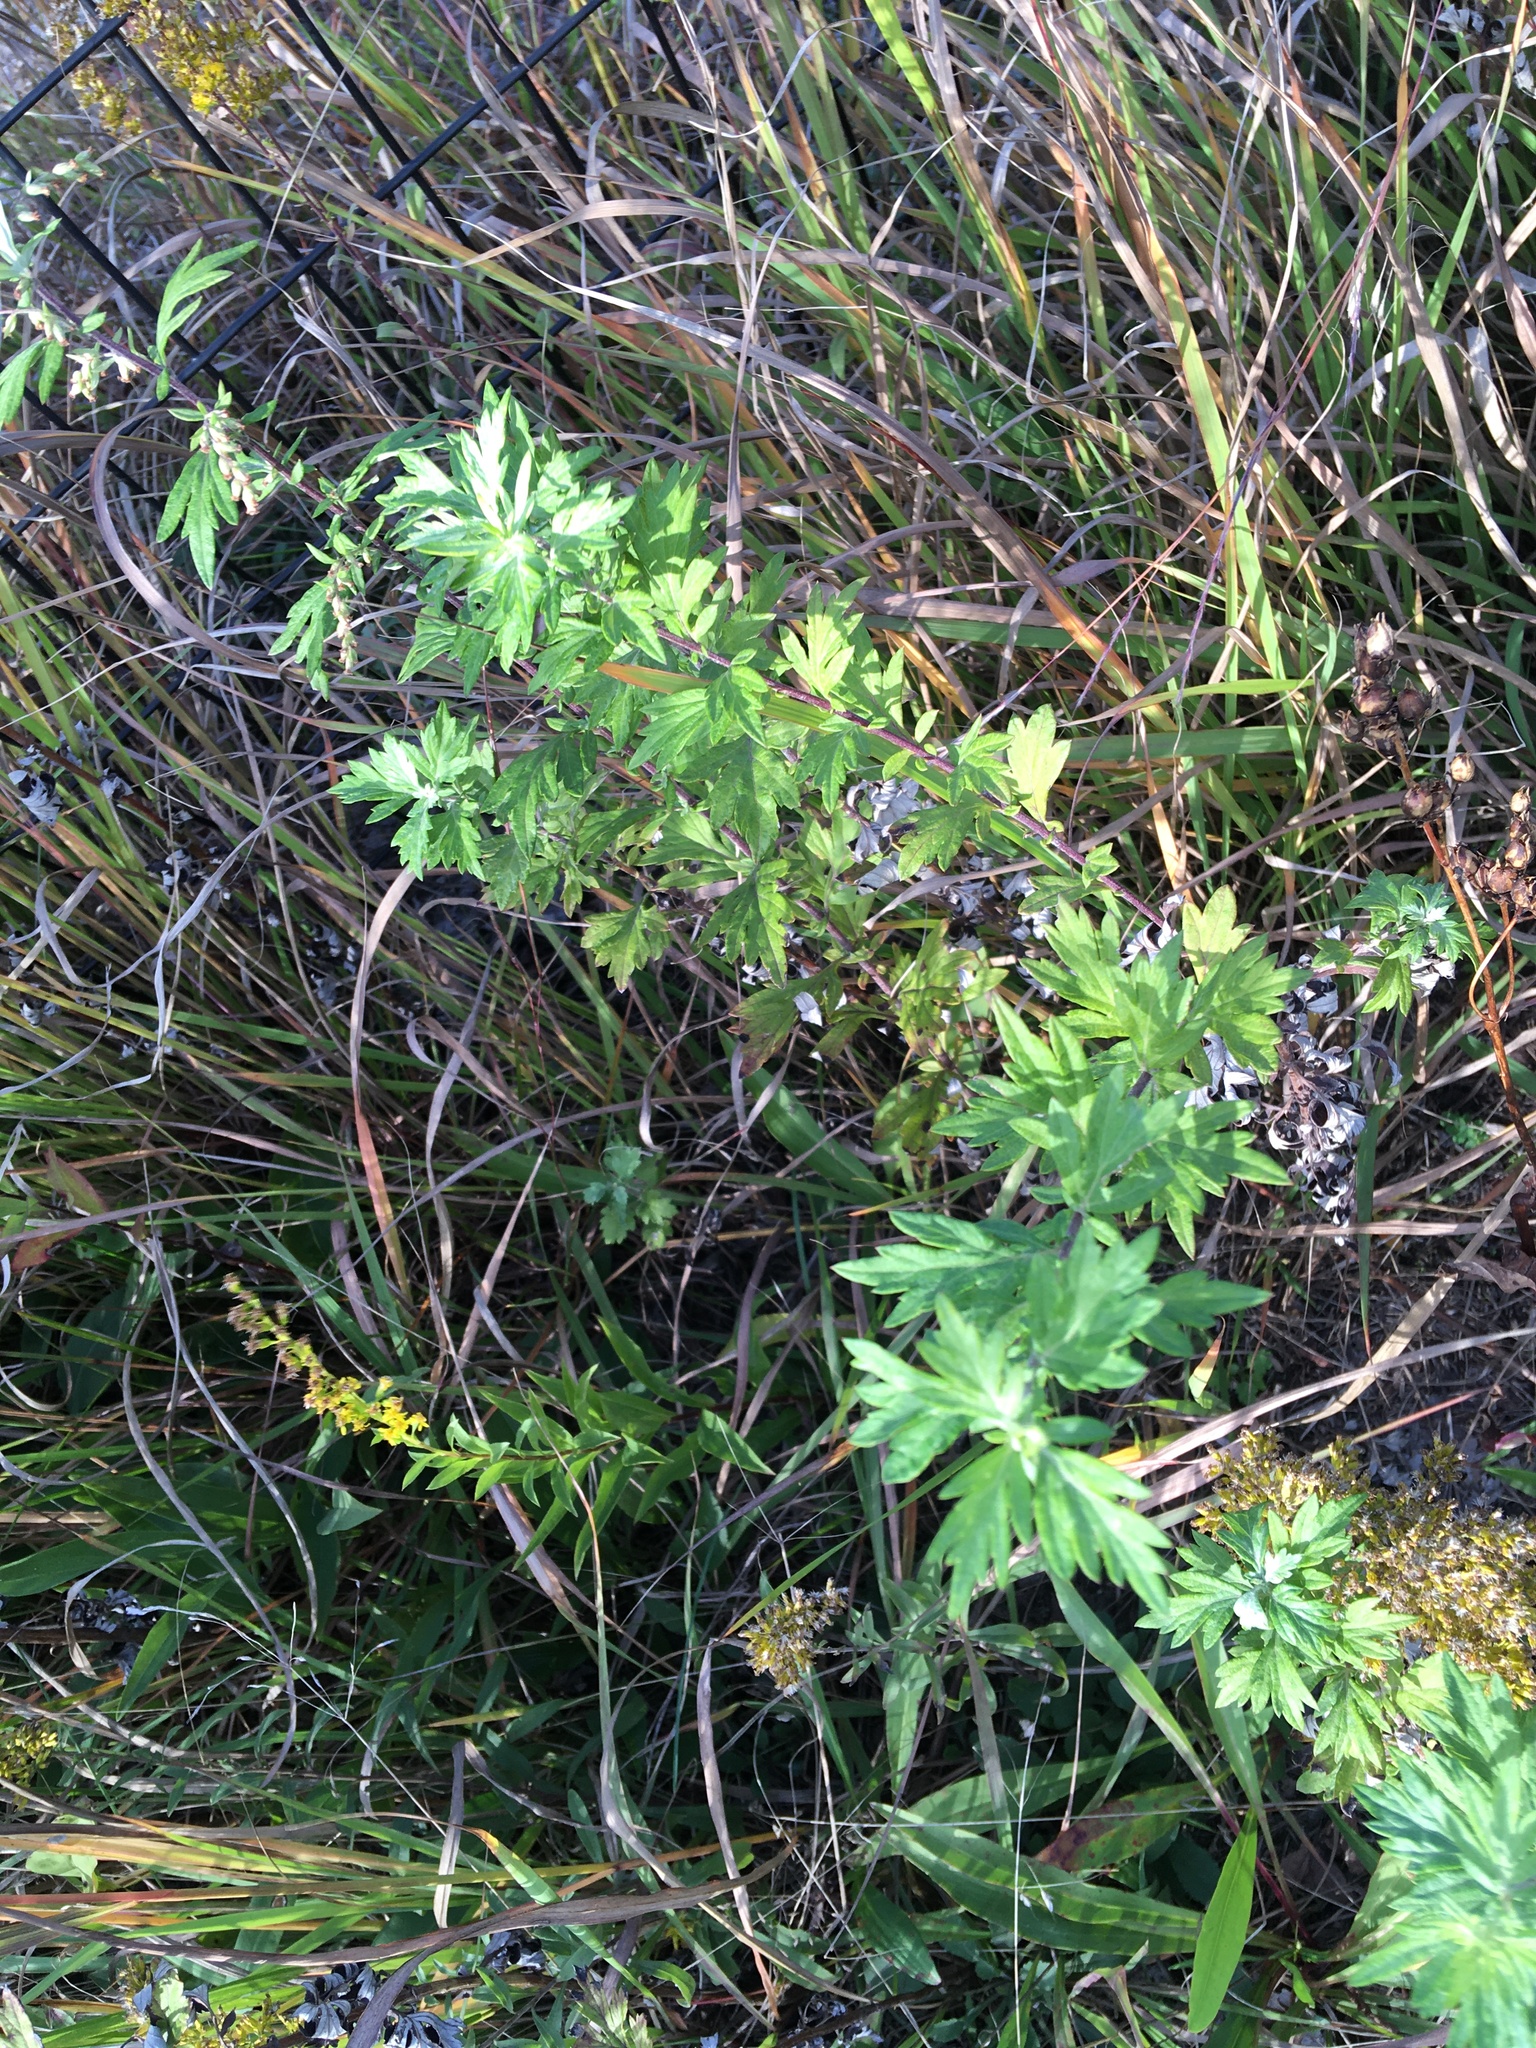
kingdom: Plantae
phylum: Tracheophyta
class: Magnoliopsida
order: Asterales
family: Asteraceae
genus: Artemisia
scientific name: Artemisia vulgaris
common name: Mugwort
